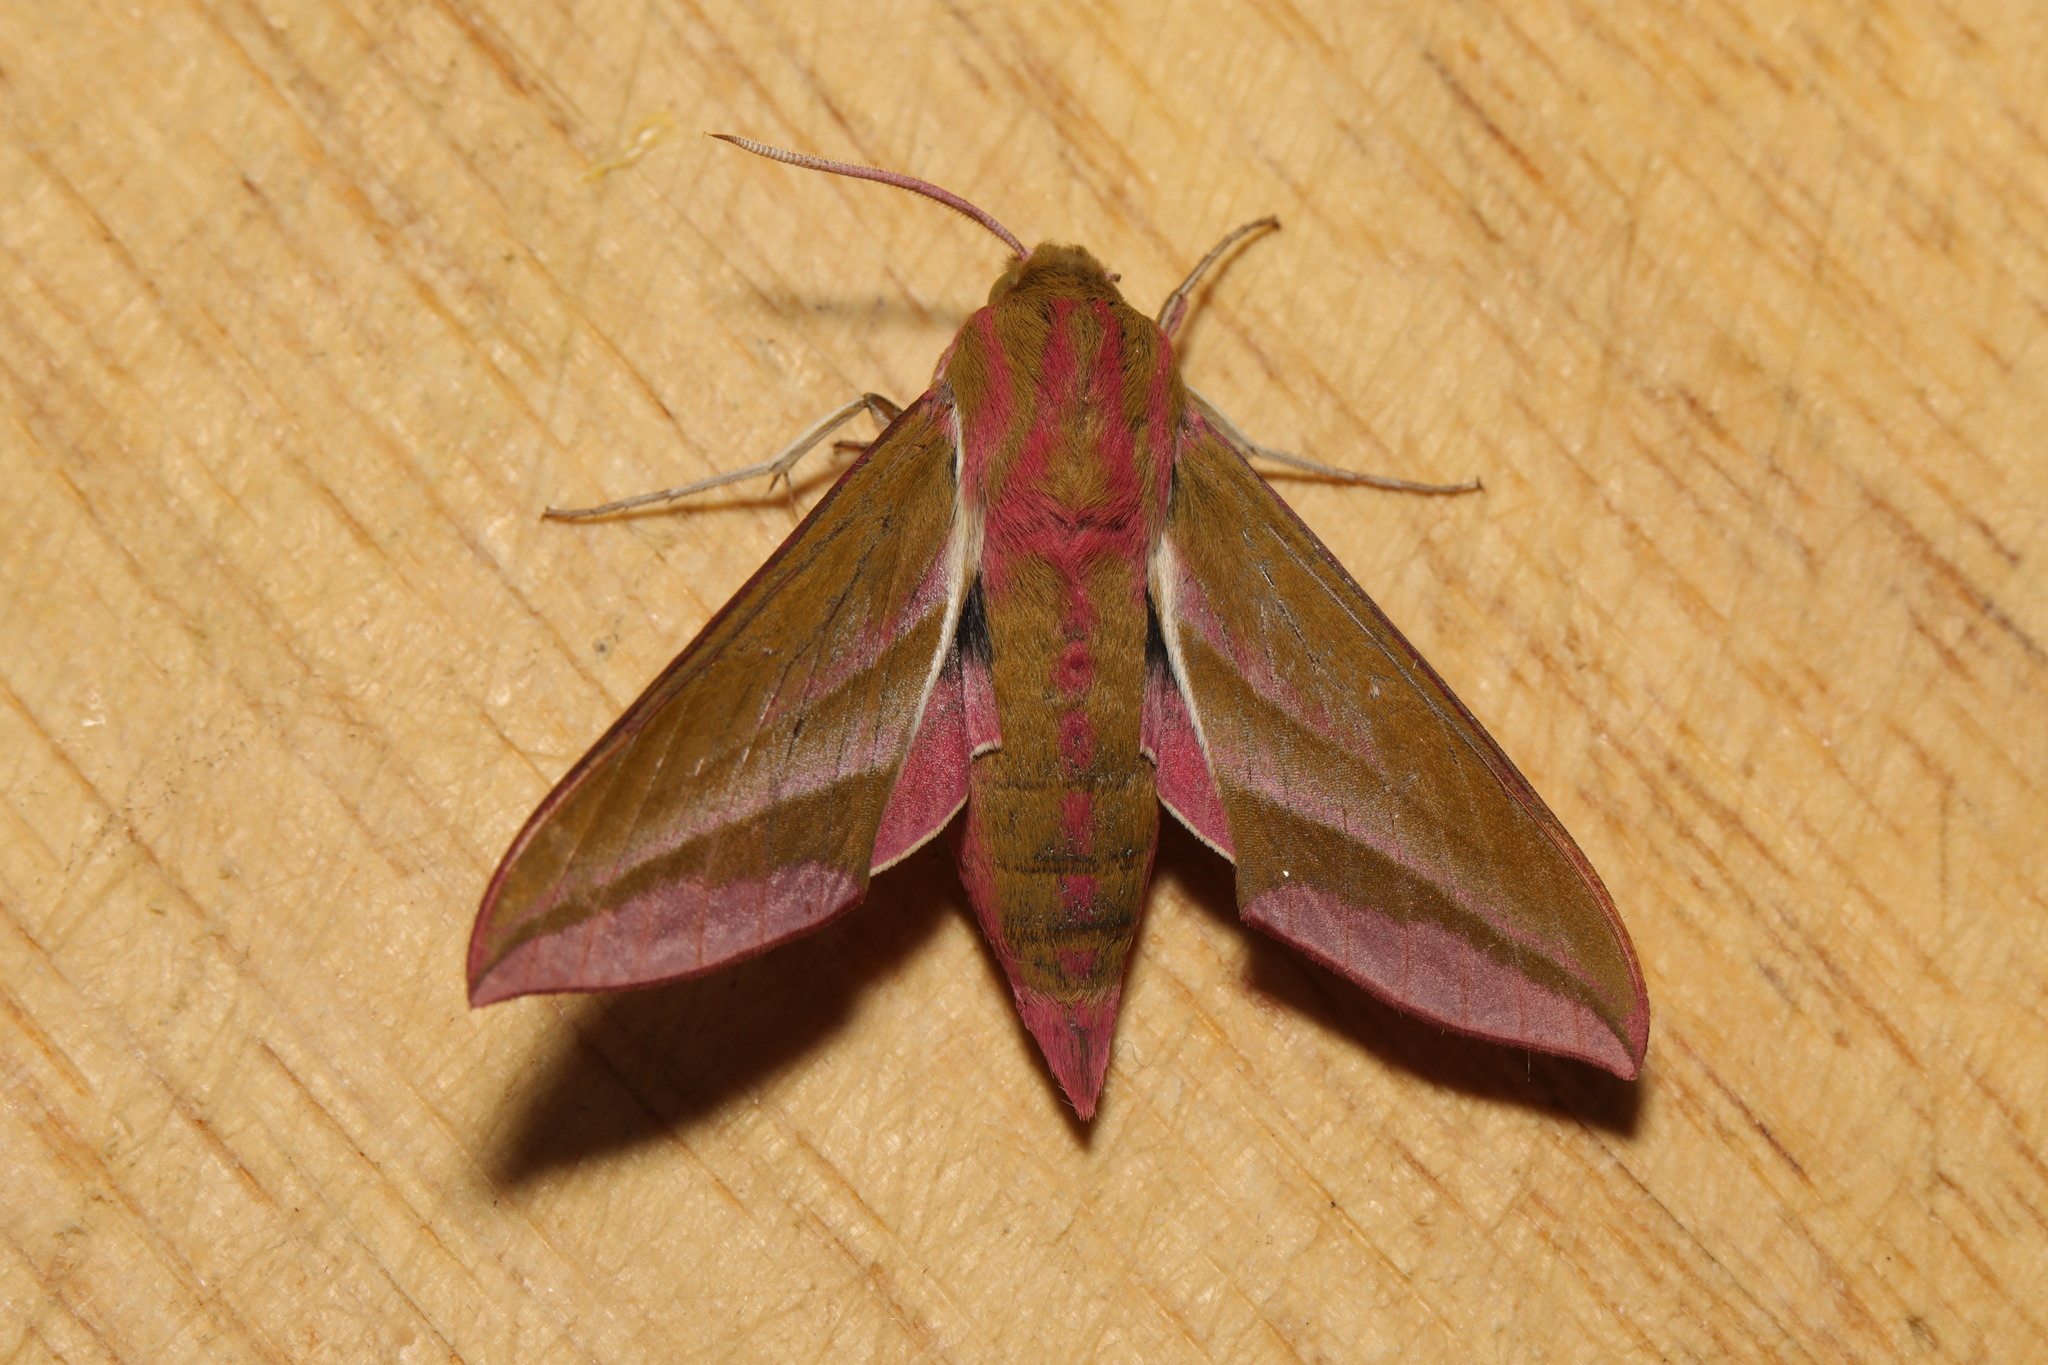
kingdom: Animalia
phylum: Arthropoda
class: Insecta
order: Lepidoptera
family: Sphingidae
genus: Deilephila
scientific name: Deilephila elpenor
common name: Elephant hawk-moth
